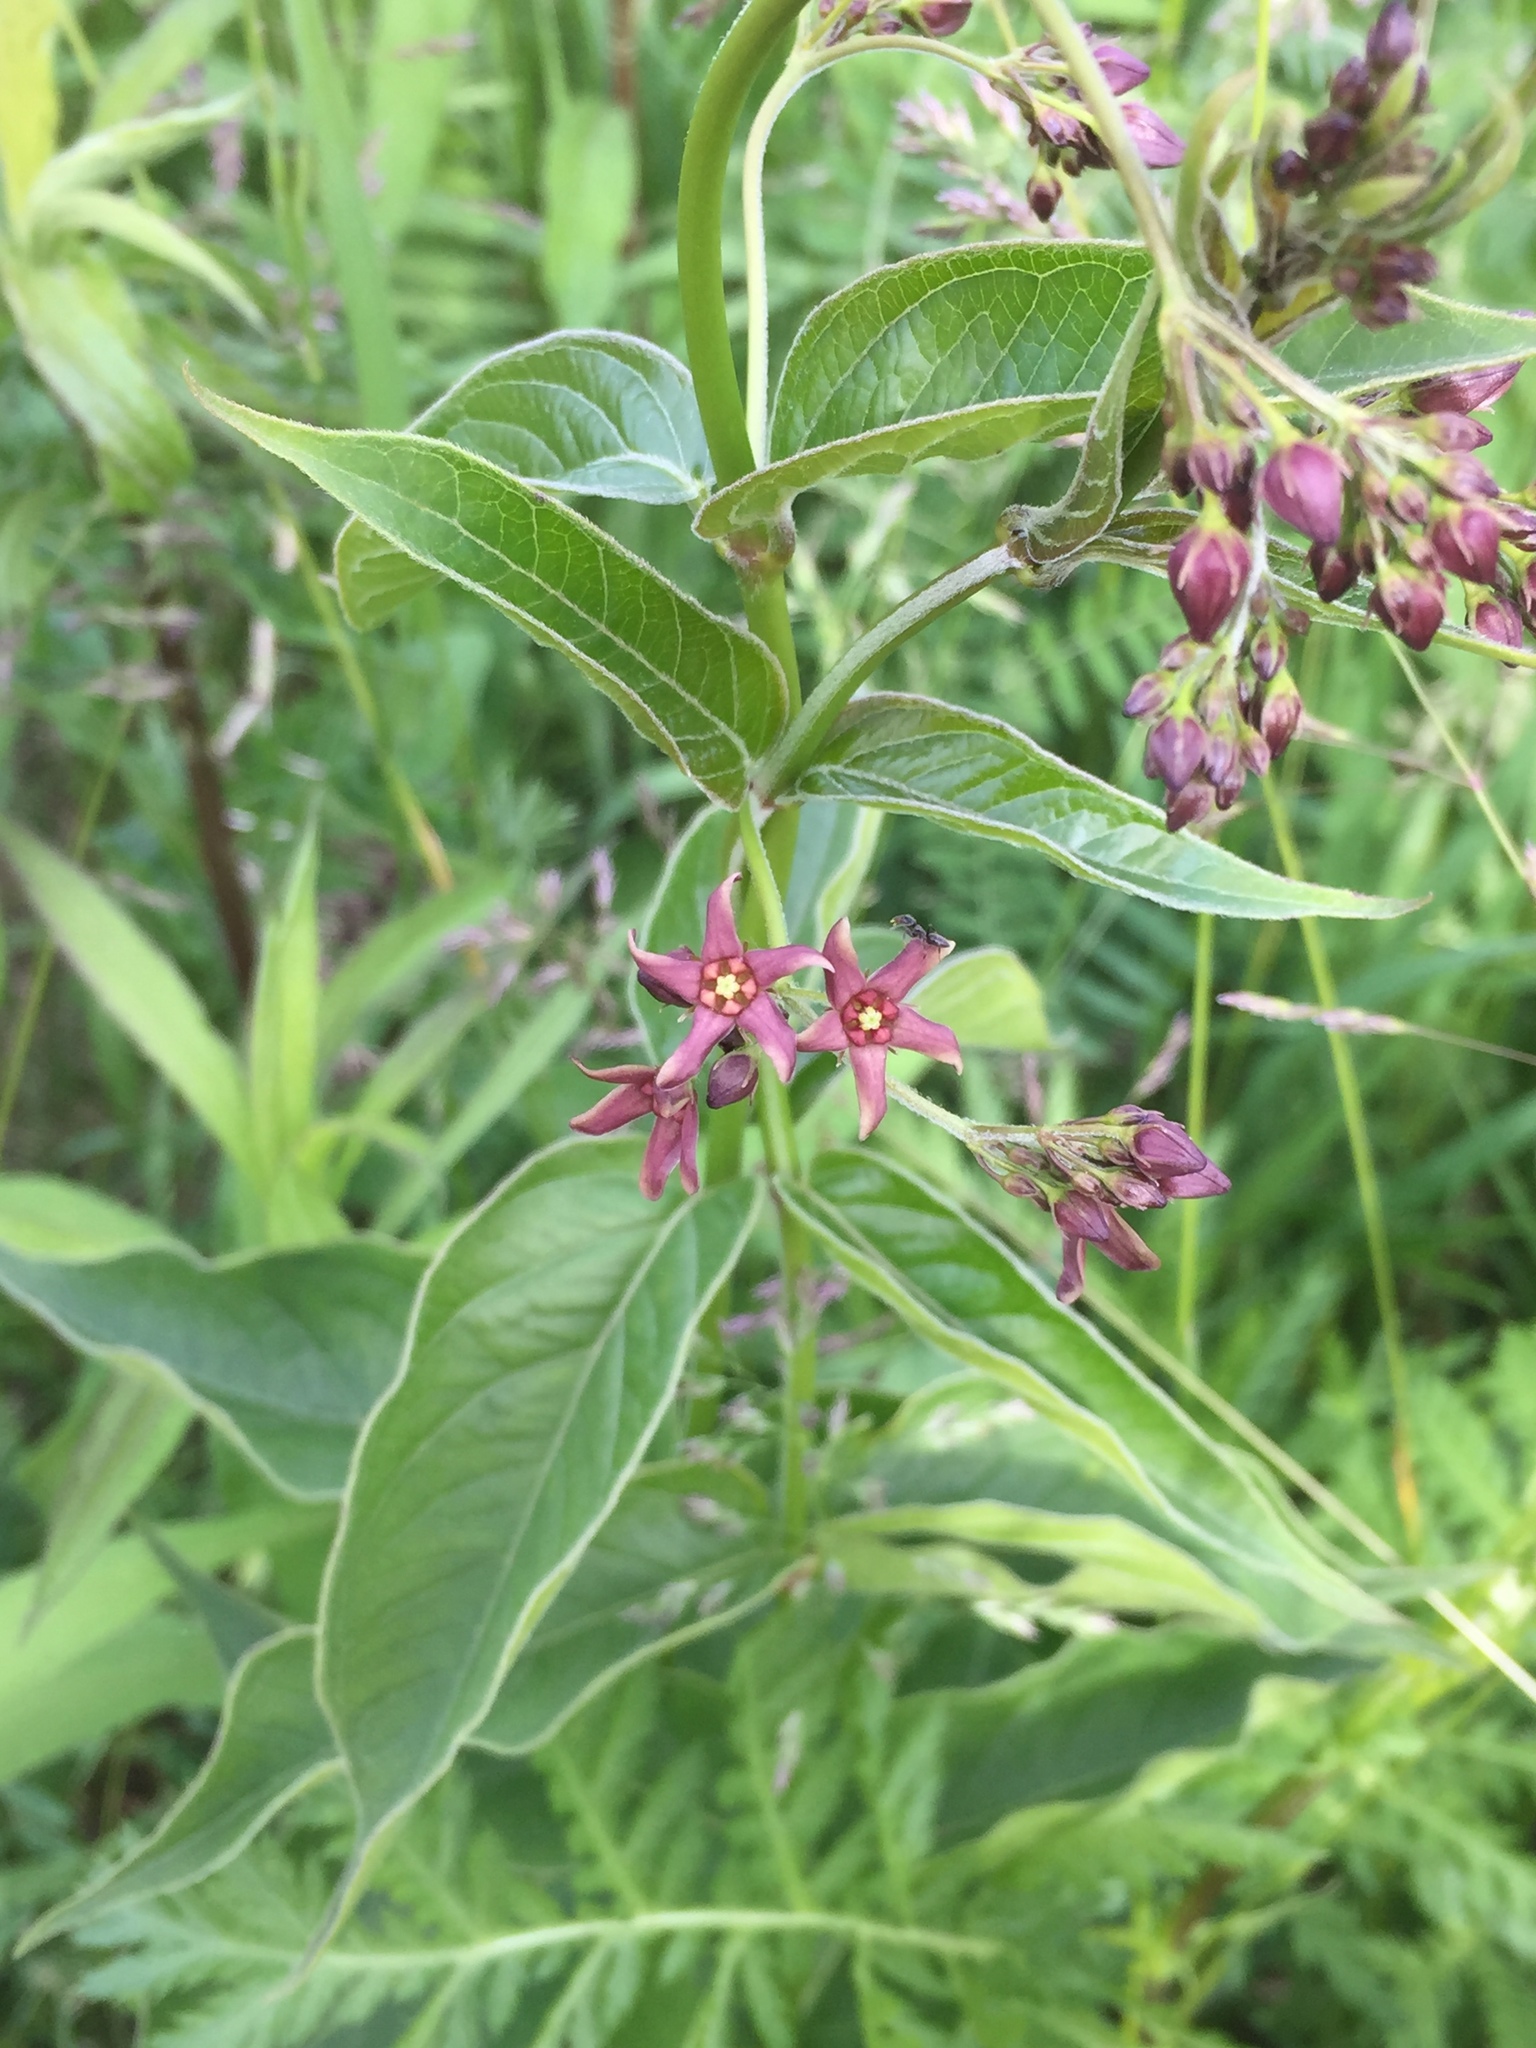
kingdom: Plantae
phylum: Tracheophyta
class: Magnoliopsida
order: Gentianales
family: Apocynaceae
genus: Vincetoxicum
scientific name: Vincetoxicum rossicum
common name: Dog-strangling vine
